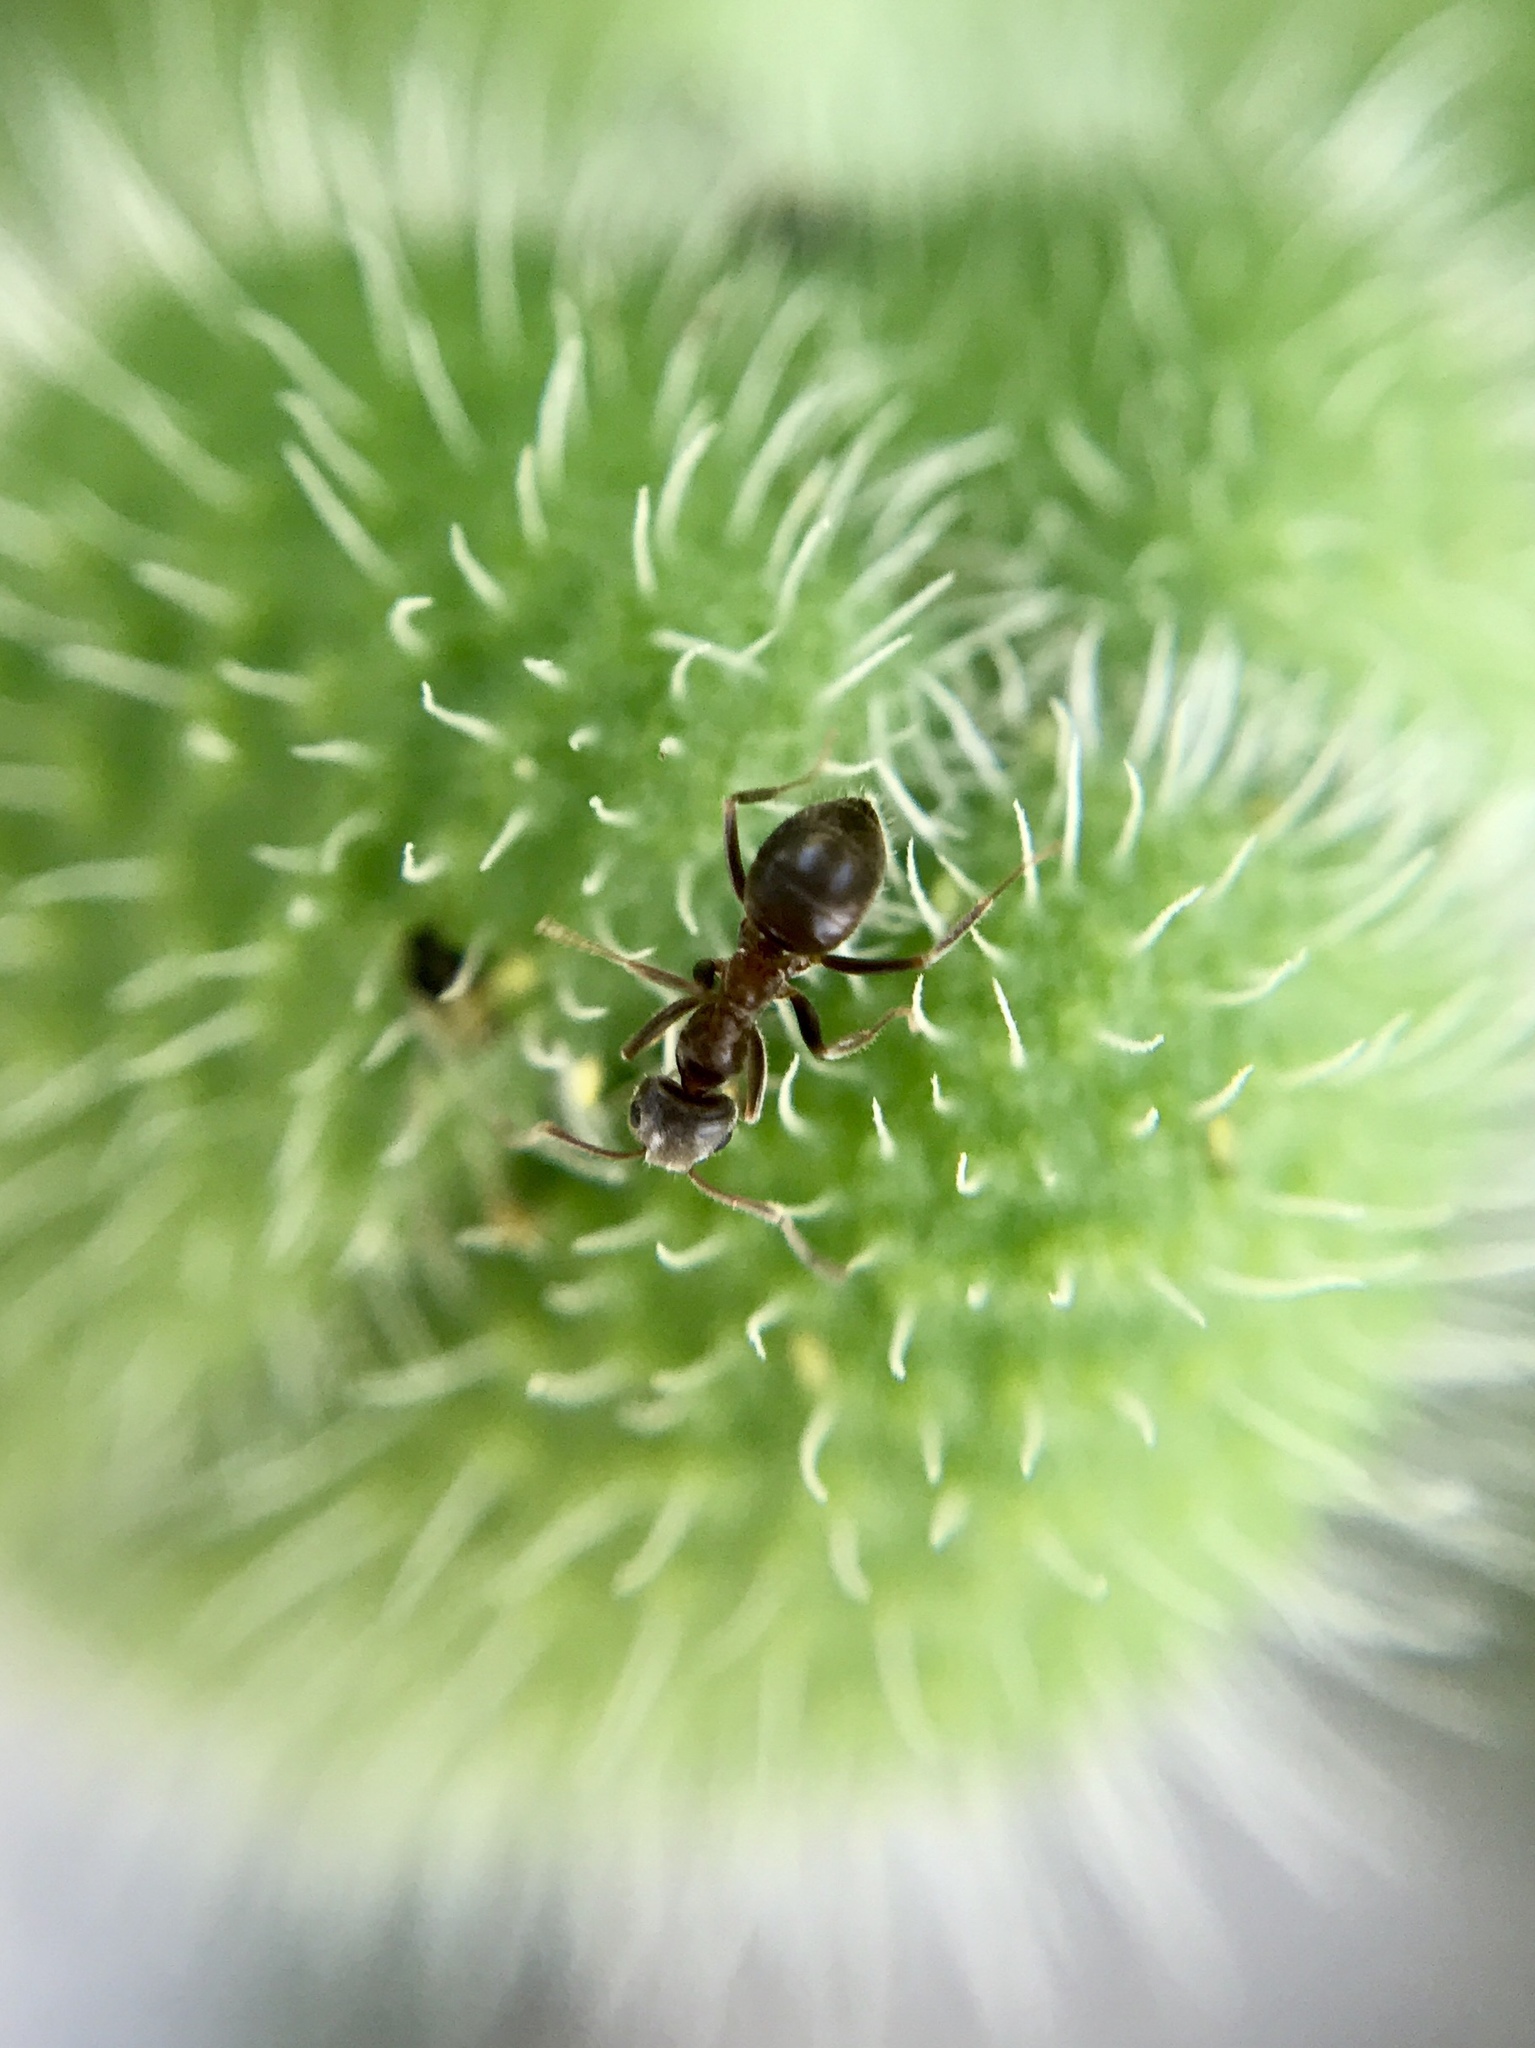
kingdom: Animalia
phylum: Arthropoda
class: Insecta
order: Hymenoptera
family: Formicidae
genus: Lasius
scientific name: Lasius niger
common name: Small black ant
